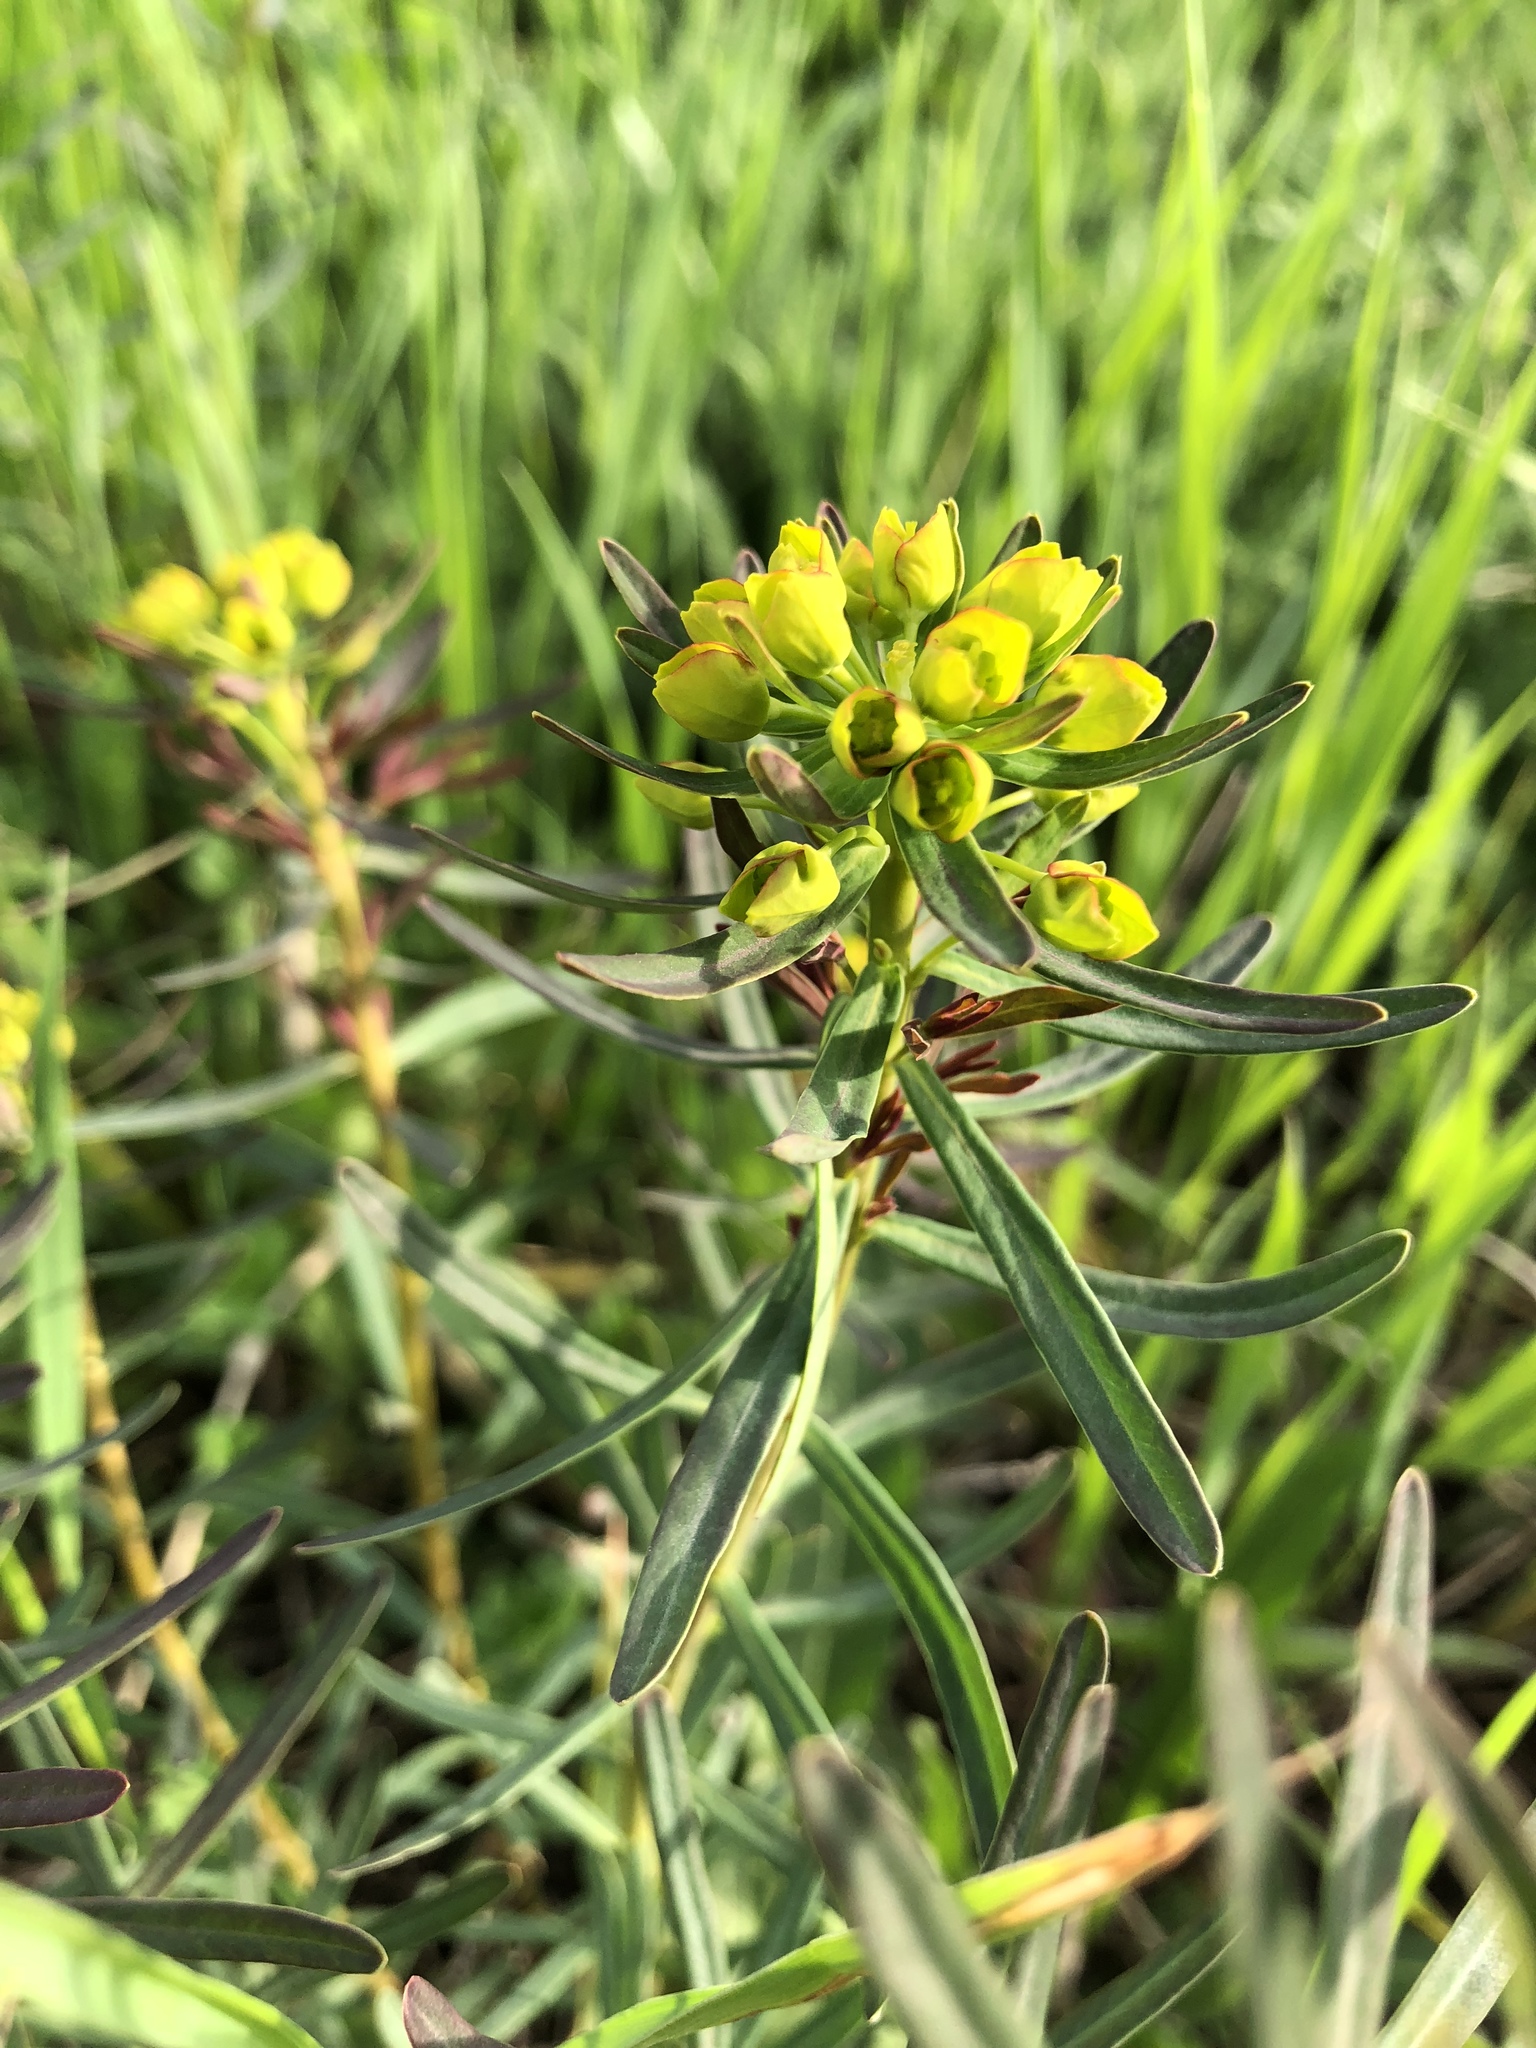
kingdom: Plantae
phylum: Tracheophyta
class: Magnoliopsida
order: Malpighiales
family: Euphorbiaceae
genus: Euphorbia
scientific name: Euphorbia esula
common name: Leafy spurge
